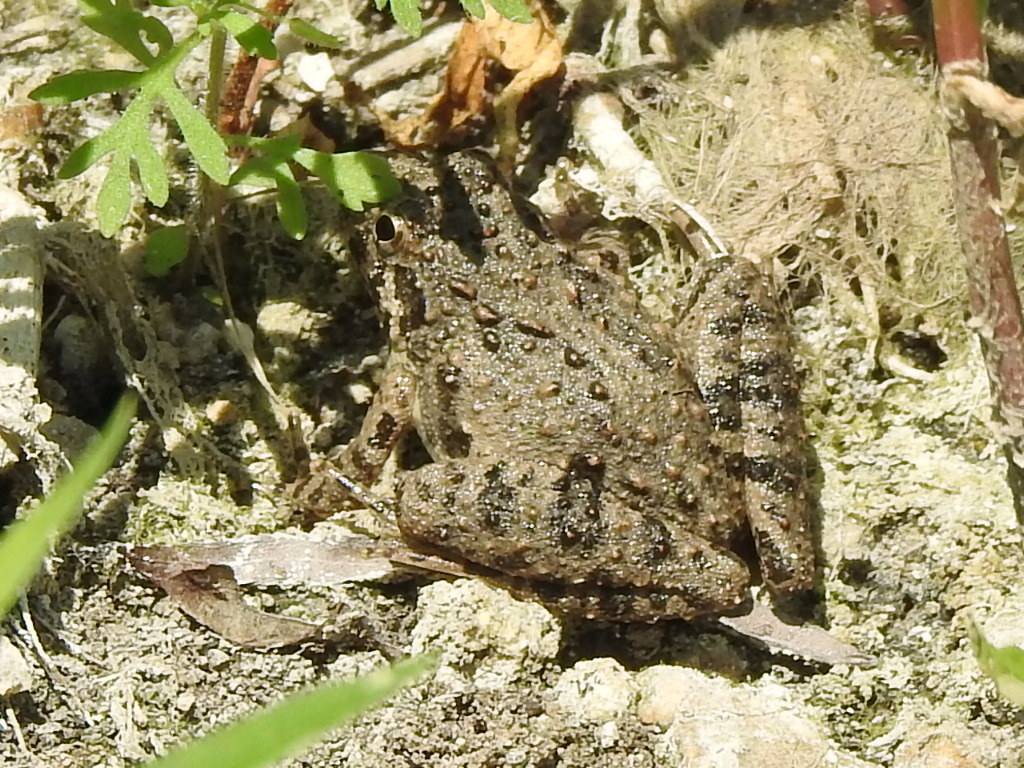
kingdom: Animalia
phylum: Chordata
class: Amphibia
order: Anura
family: Hylidae
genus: Acris
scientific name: Acris blanchardi
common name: Blanchard's cricket frog
